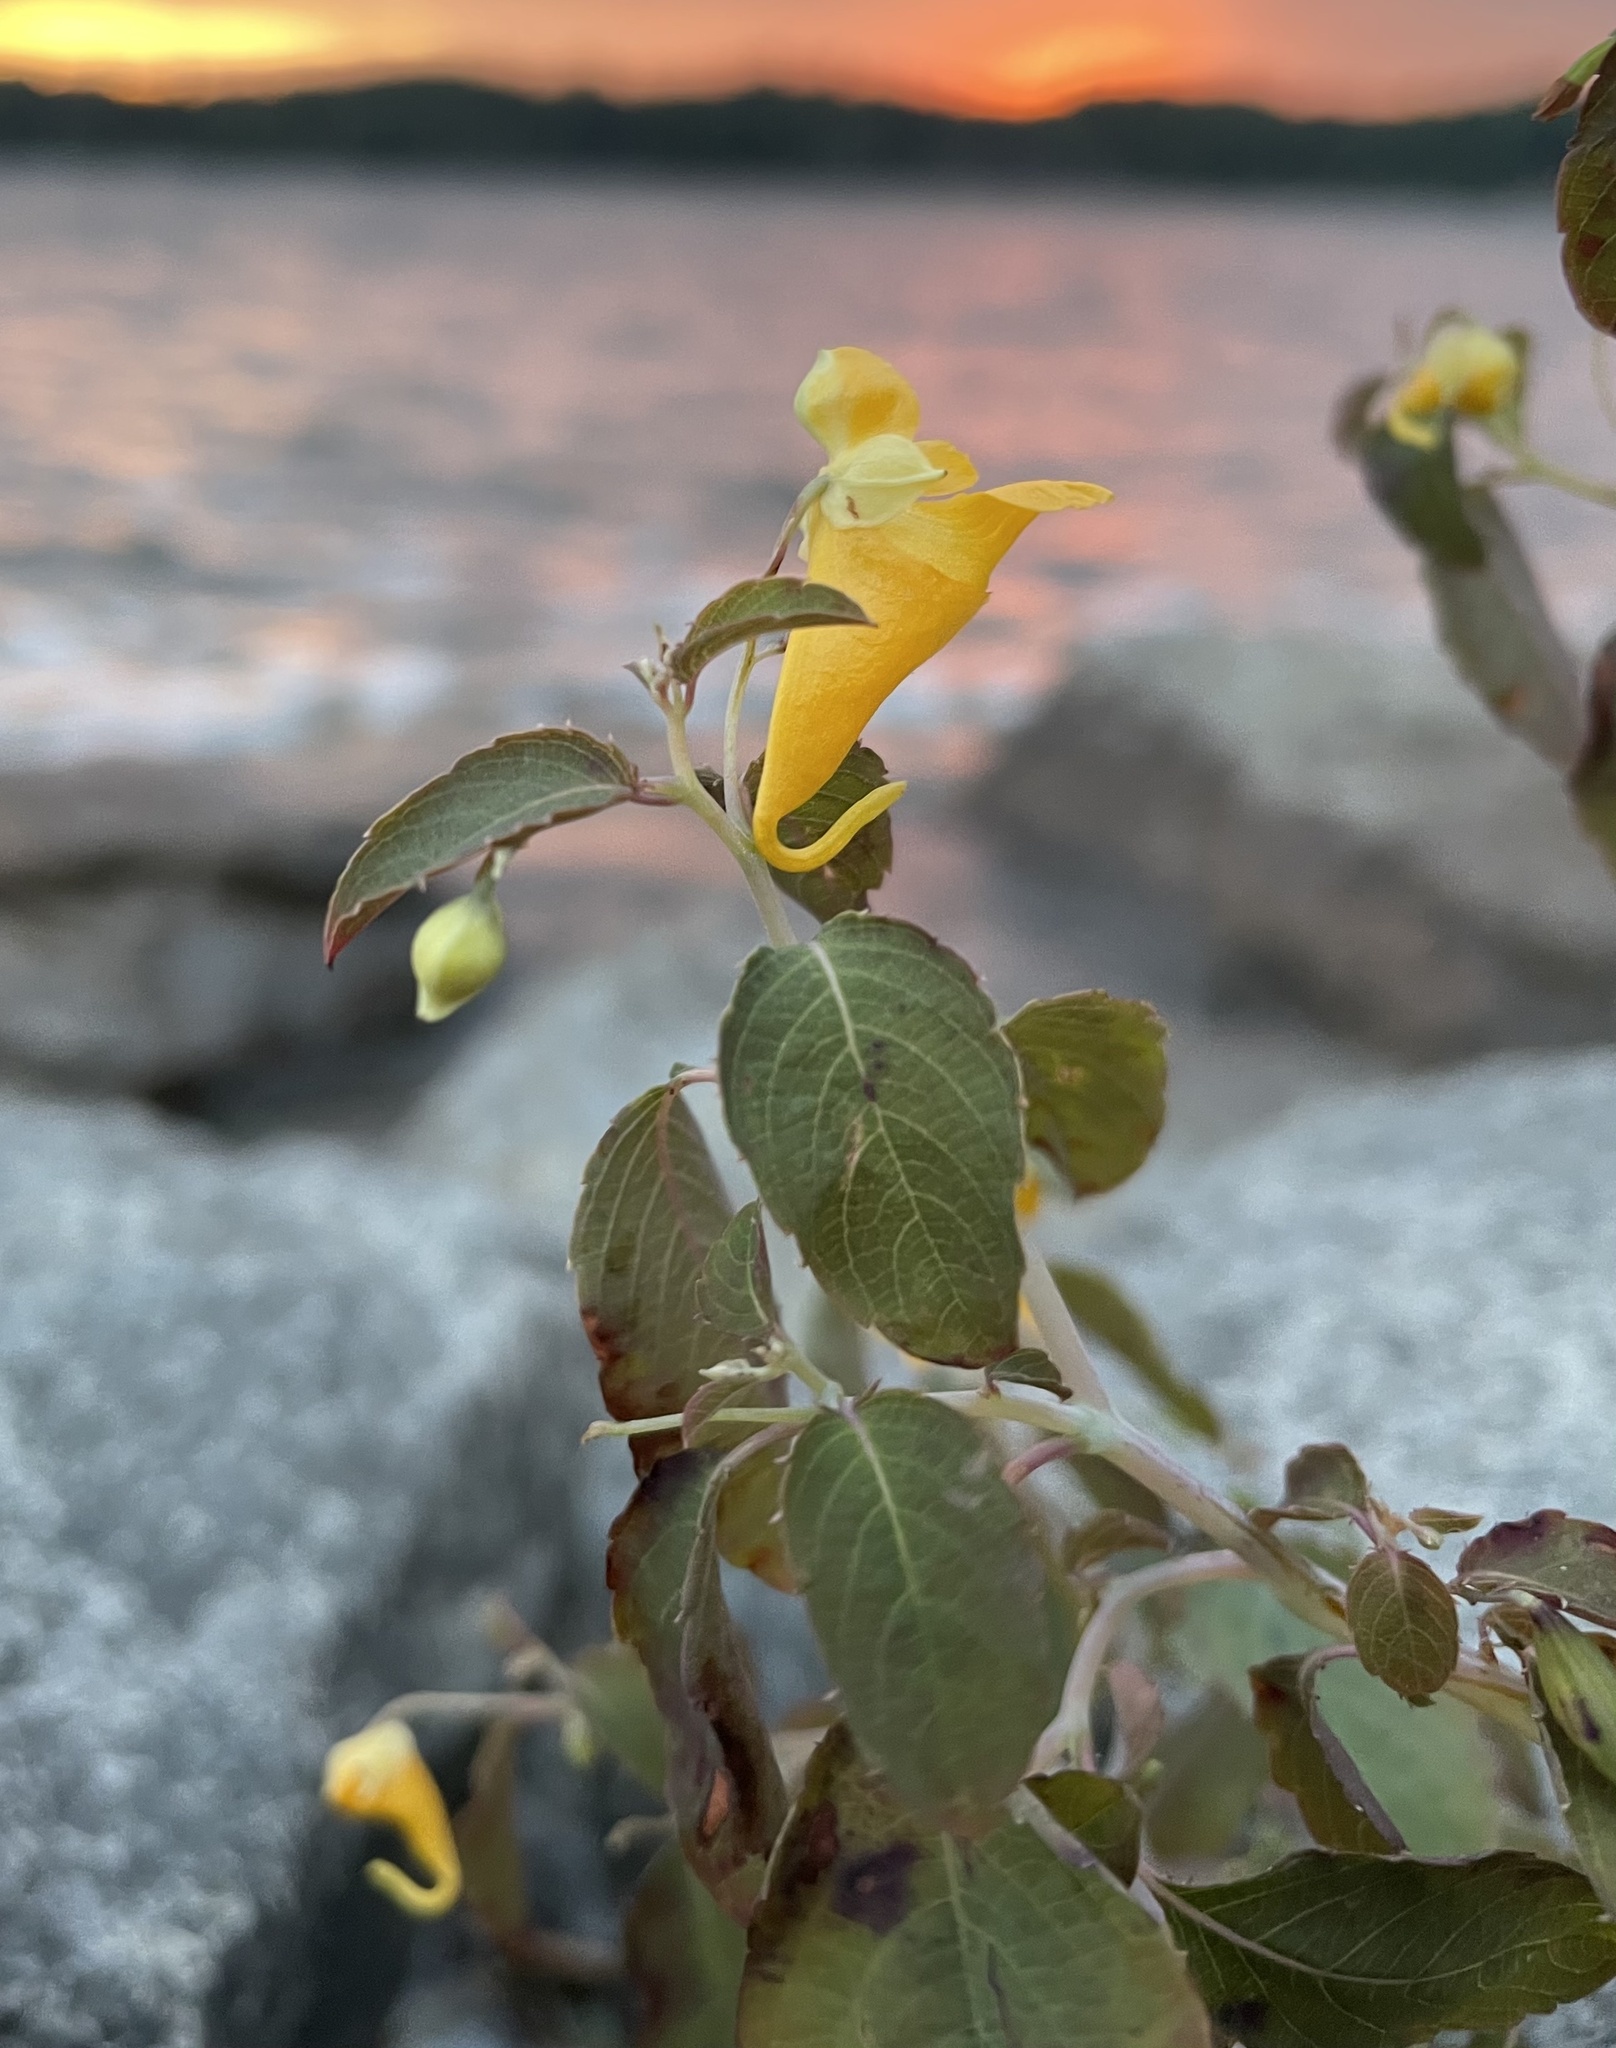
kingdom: Plantae
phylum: Tracheophyta
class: Magnoliopsida
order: Ericales
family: Balsaminaceae
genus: Impatiens
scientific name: Impatiens capensis
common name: Orange balsam
